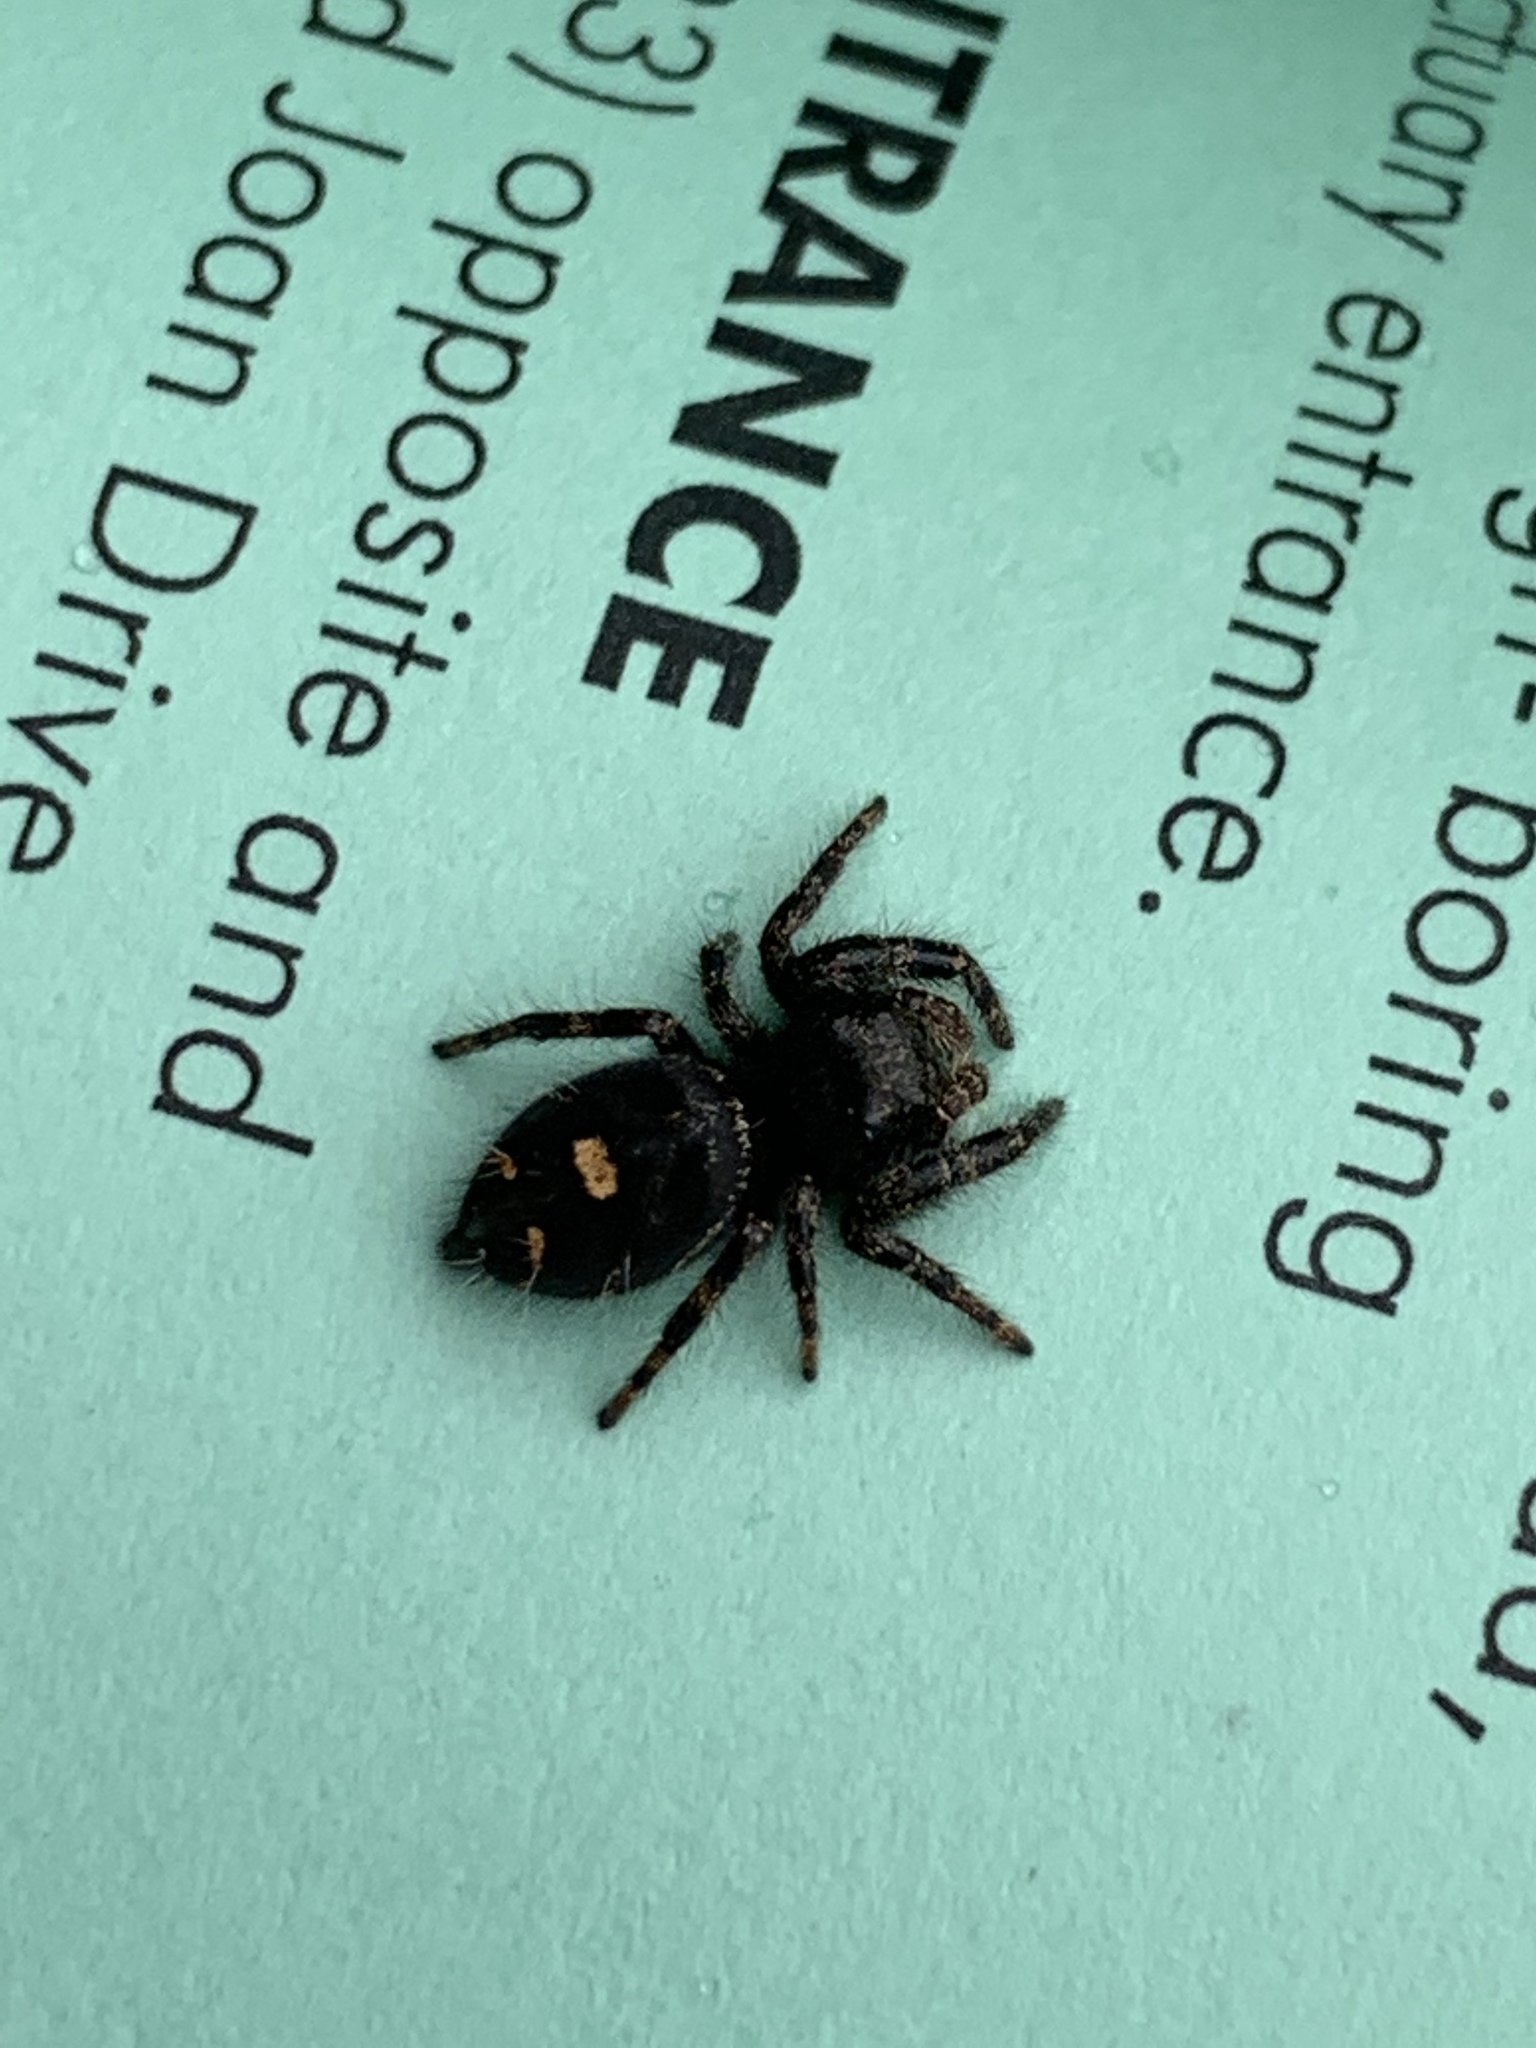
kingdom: Animalia
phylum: Arthropoda
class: Arachnida
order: Araneae
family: Salticidae
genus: Phidippus
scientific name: Phidippus audax
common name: Bold jumper
